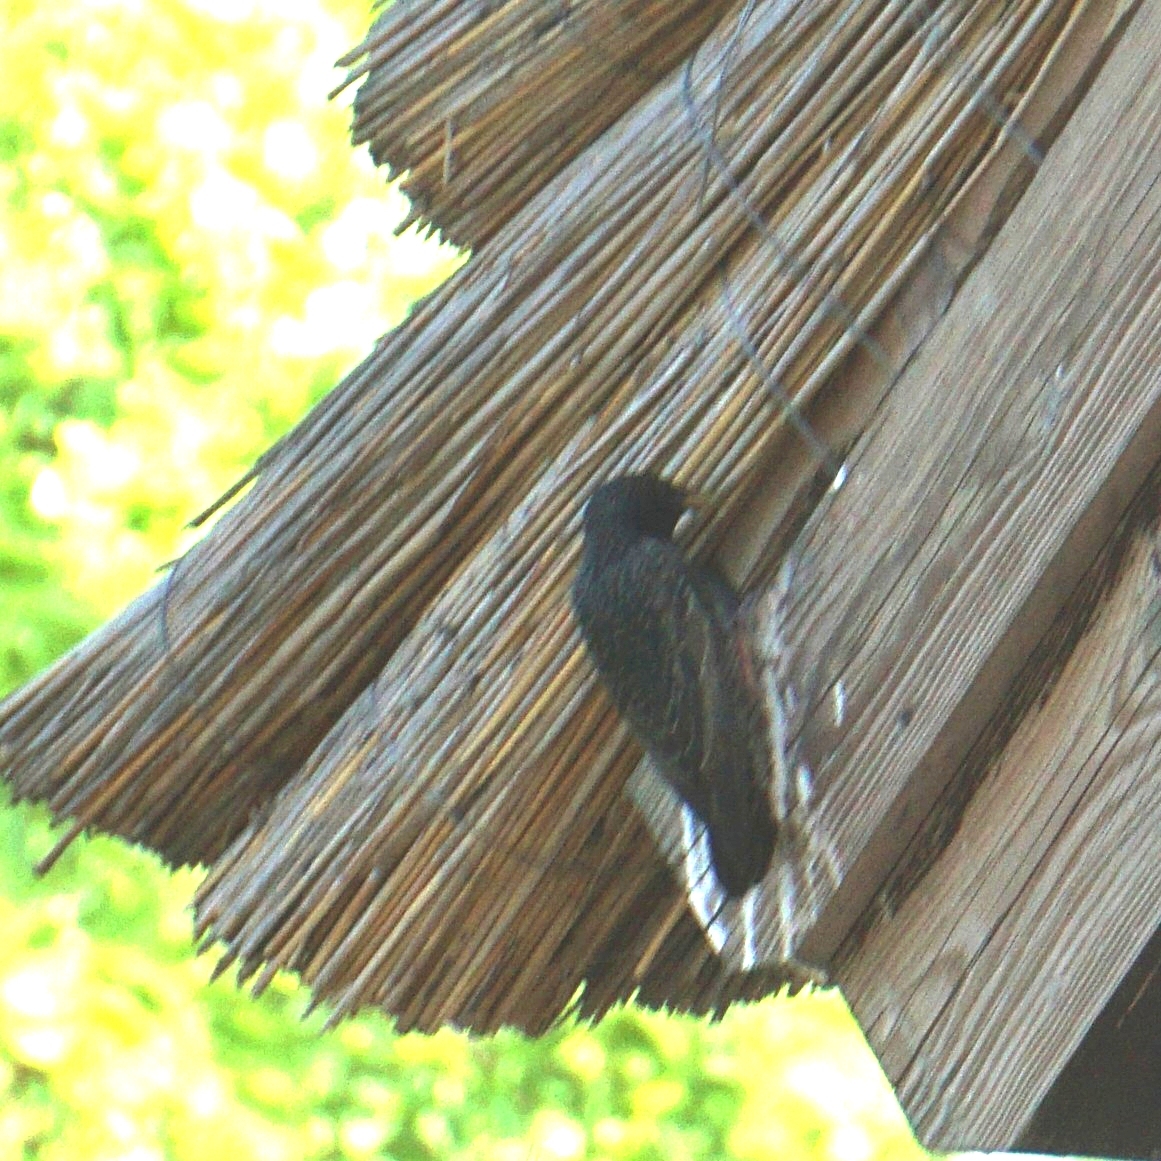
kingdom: Animalia
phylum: Chordata
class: Aves
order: Passeriformes
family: Sturnidae
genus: Sturnus
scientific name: Sturnus vulgaris
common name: Common starling
